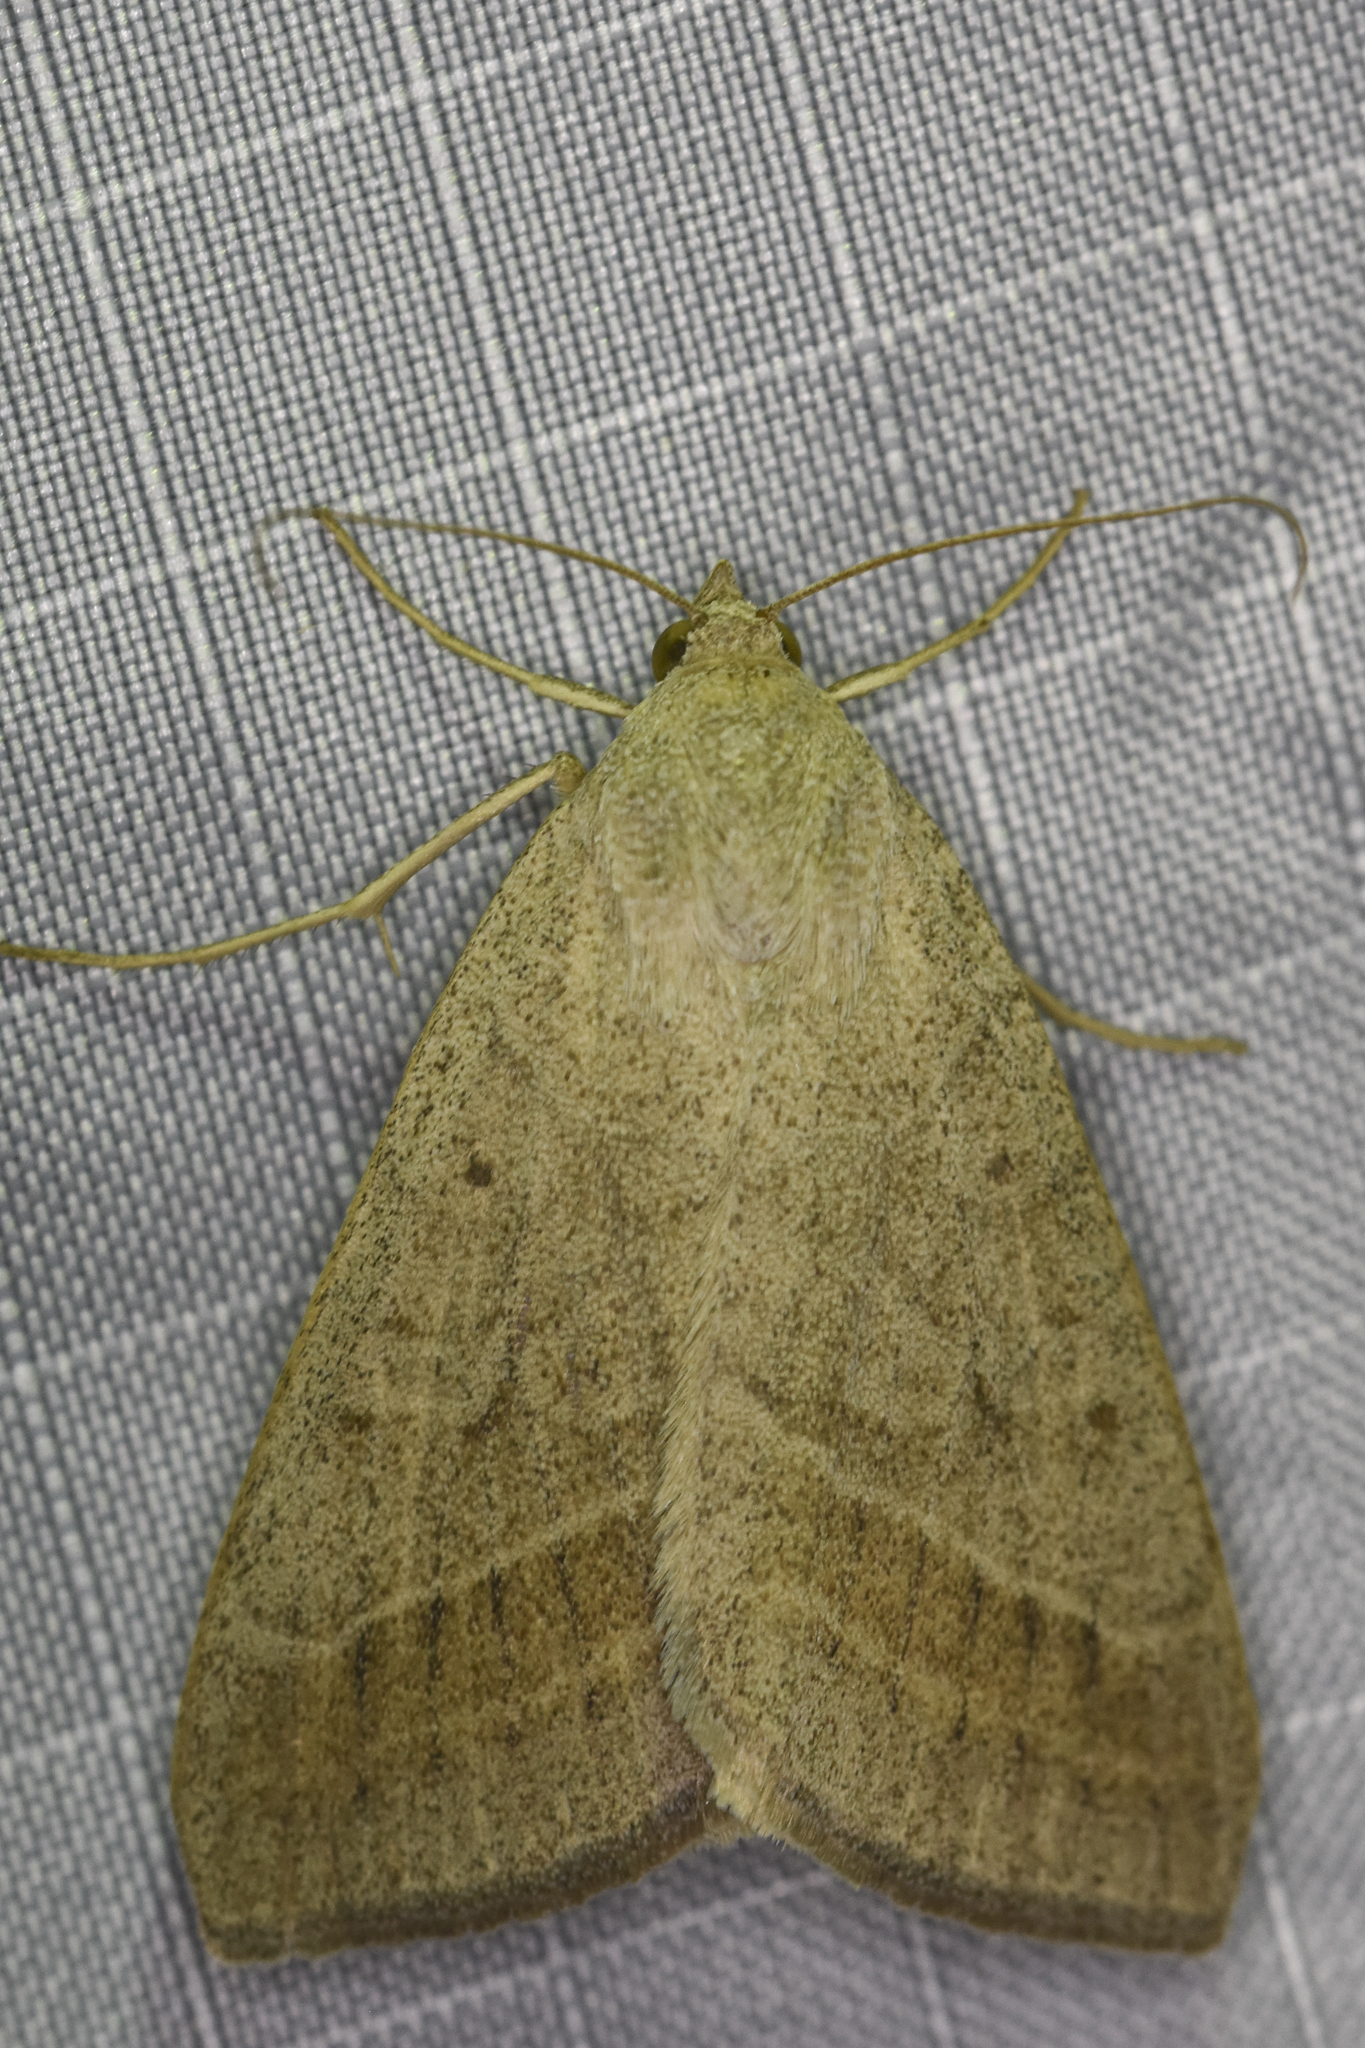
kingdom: Animalia
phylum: Arthropoda
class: Insecta
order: Lepidoptera
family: Erebidae
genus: Caenurgia
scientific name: Caenurgia togataria
